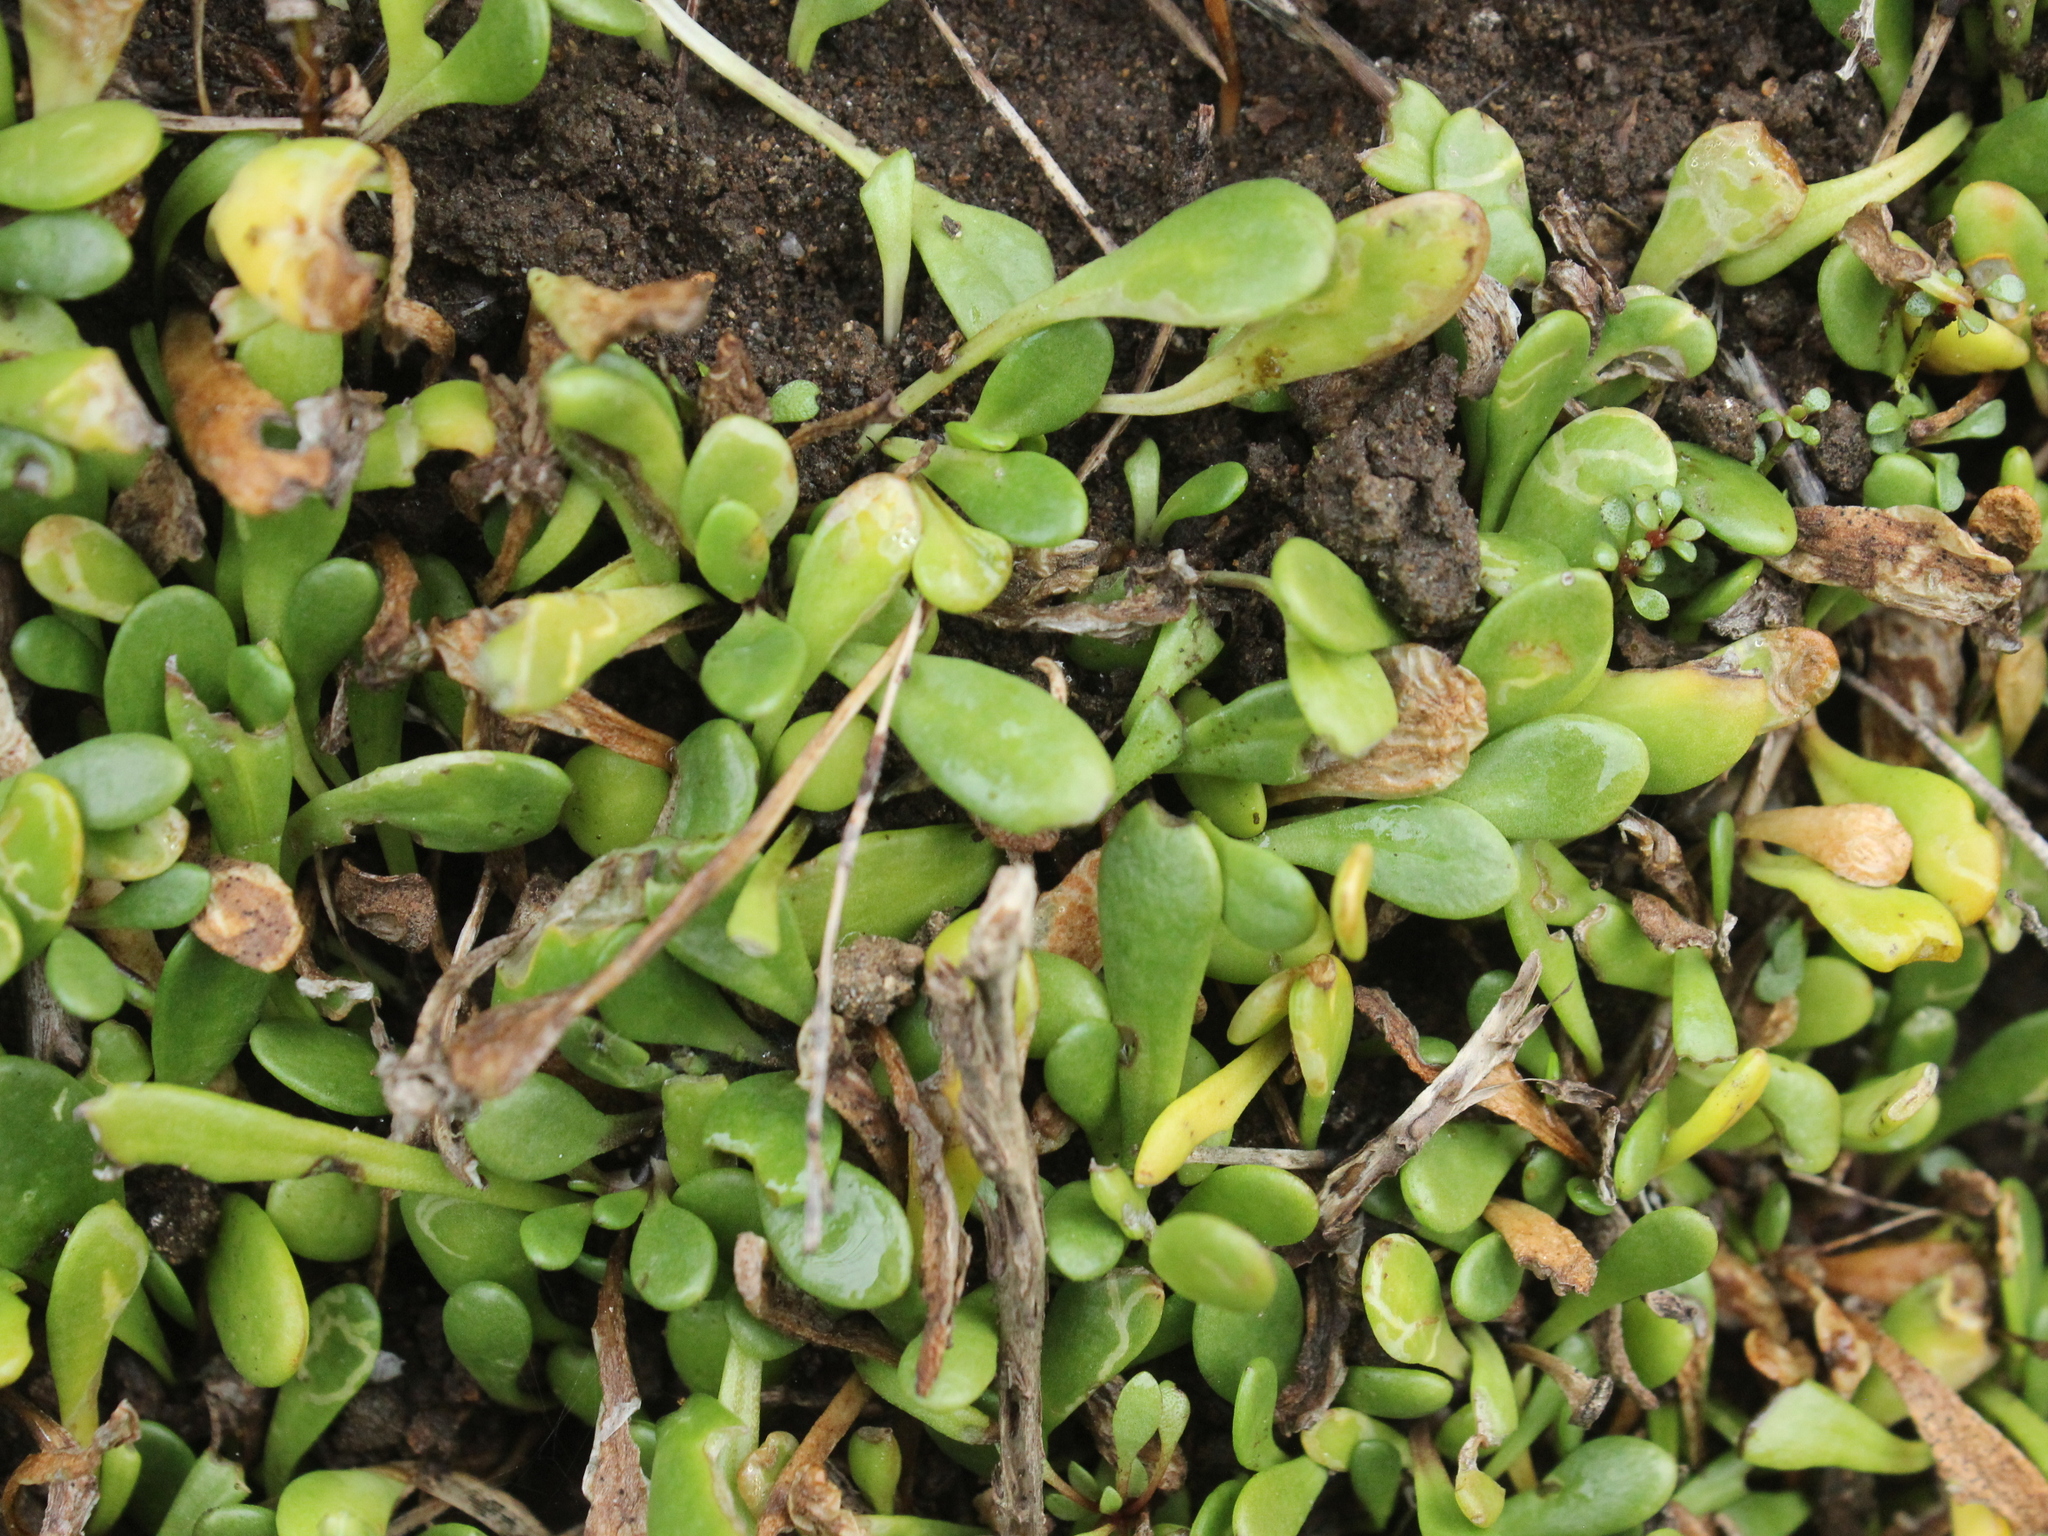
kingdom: Plantae
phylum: Tracheophyta
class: Magnoliopsida
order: Asterales
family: Goodeniaceae
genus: Goodenia
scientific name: Goodenia radicans
